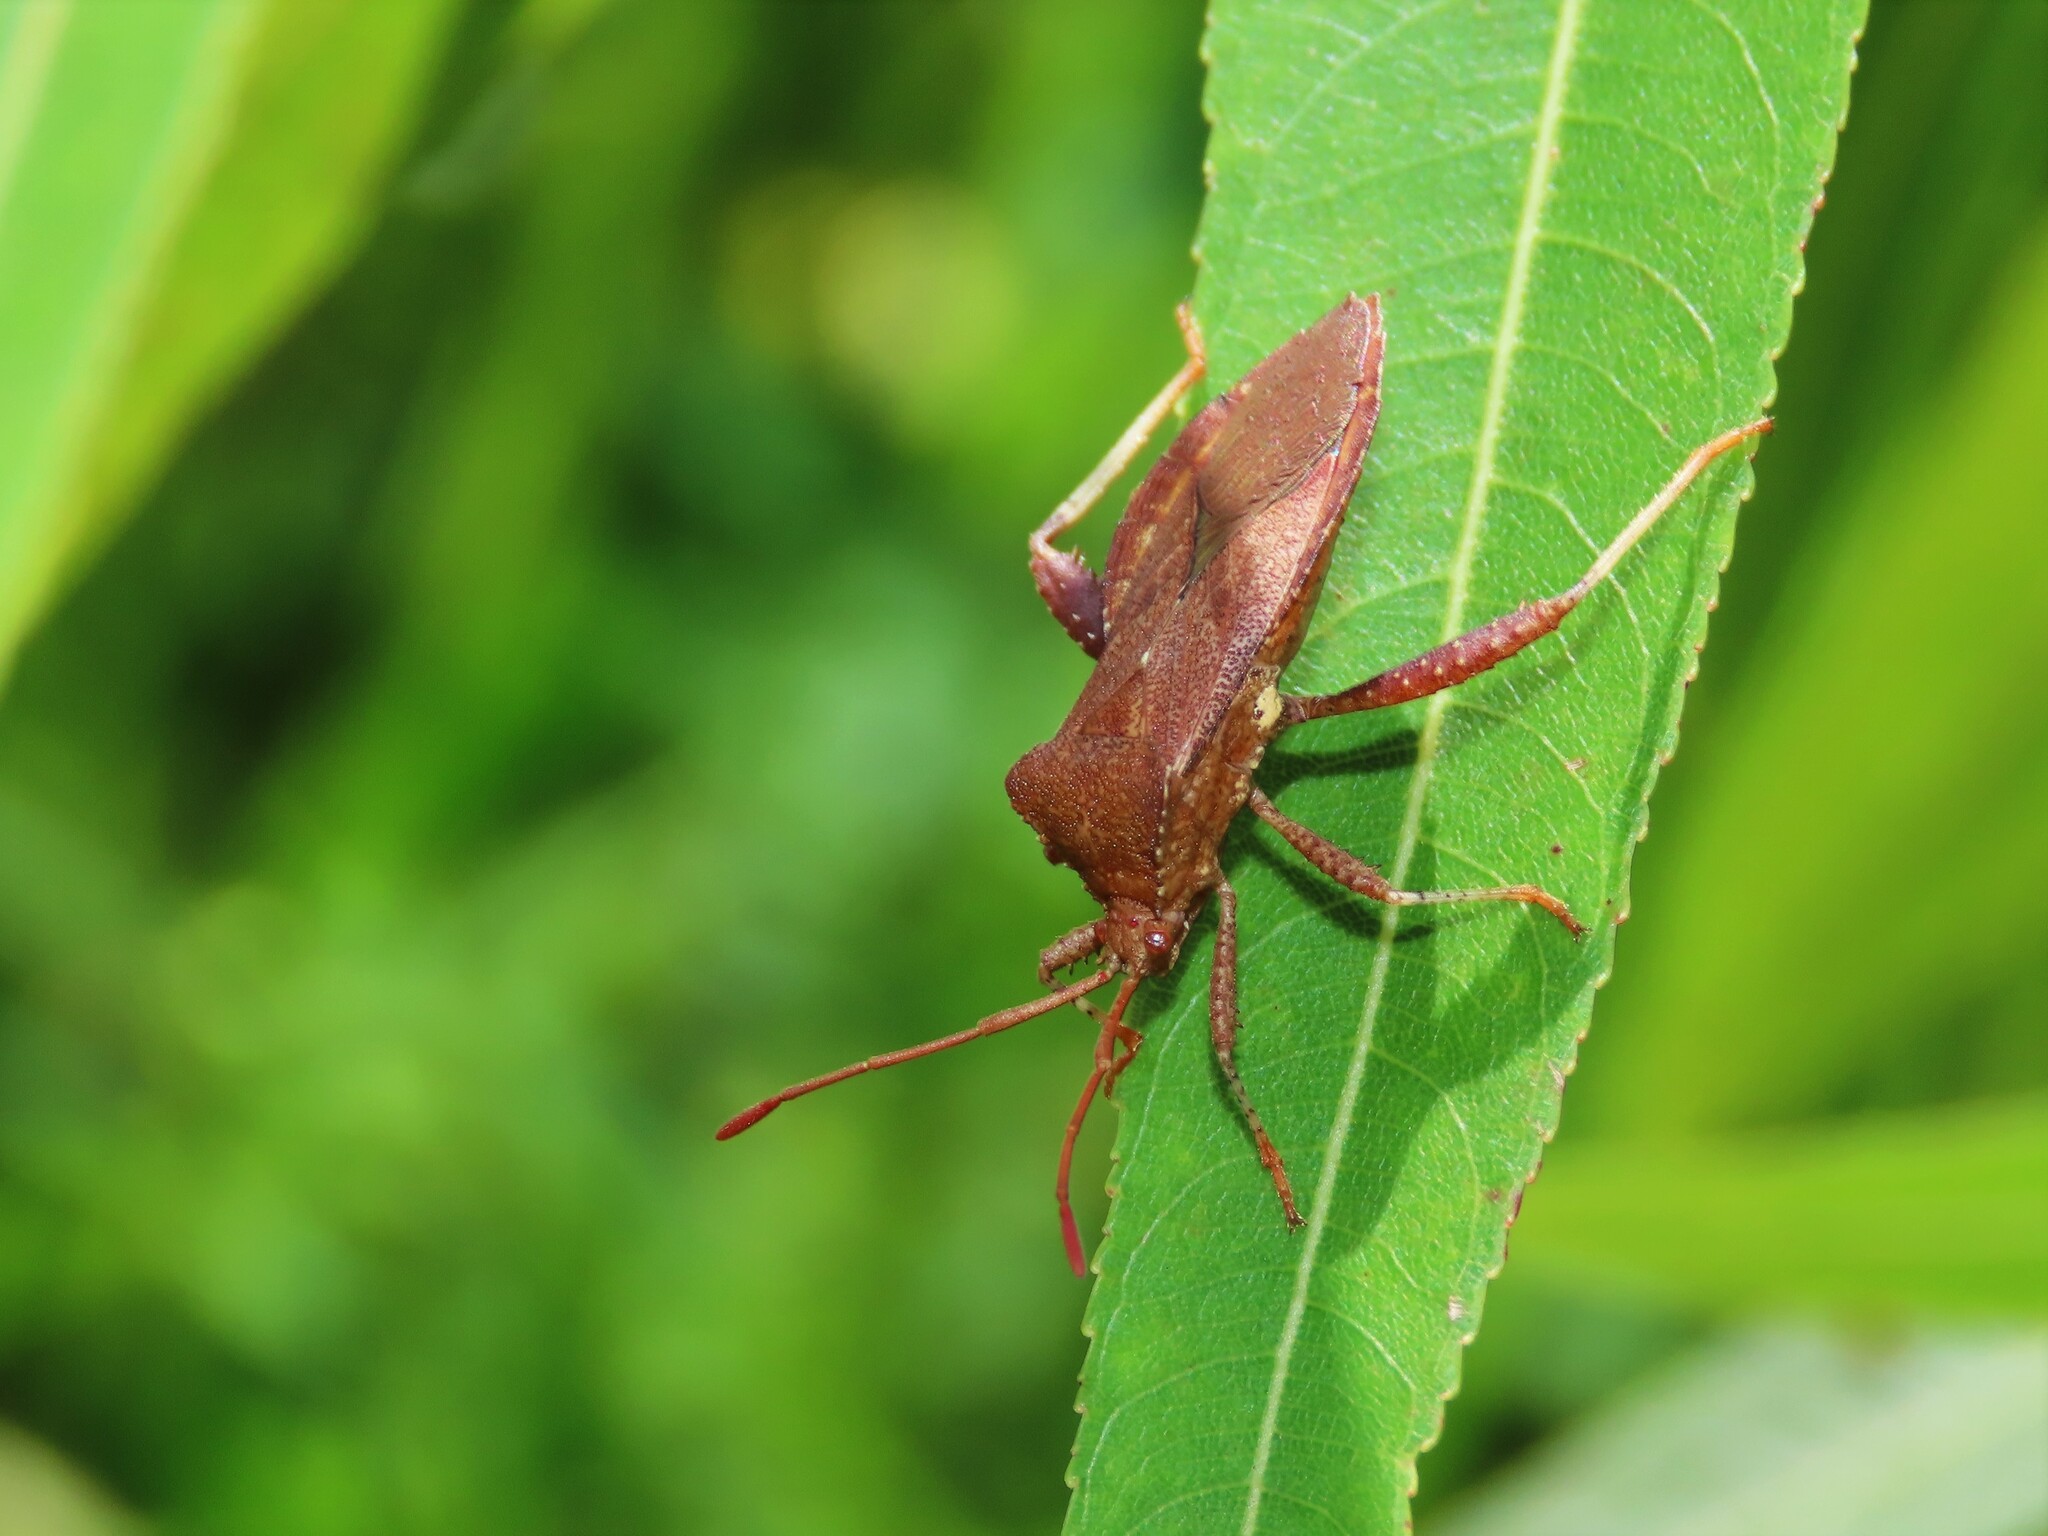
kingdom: Animalia
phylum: Arthropoda
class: Insecta
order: Hemiptera
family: Coreidae
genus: Euthochtha
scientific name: Euthochtha galeator
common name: Helmeted squash bug
